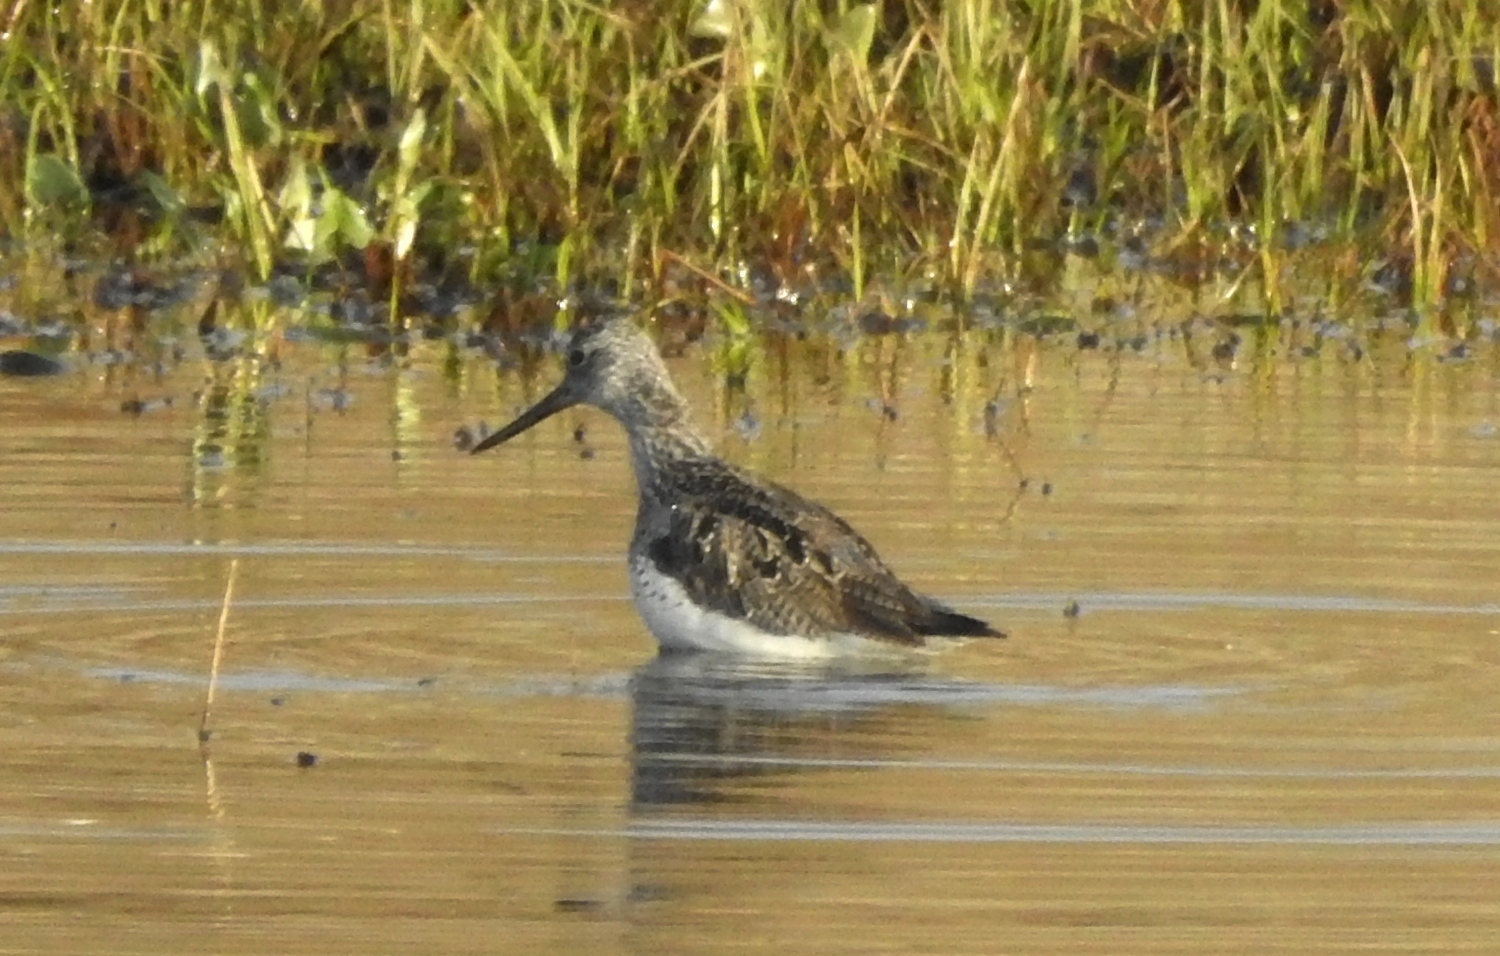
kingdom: Animalia
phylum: Chordata
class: Aves
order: Charadriiformes
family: Scolopacidae
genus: Tringa
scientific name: Tringa nebularia
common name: Common greenshank
